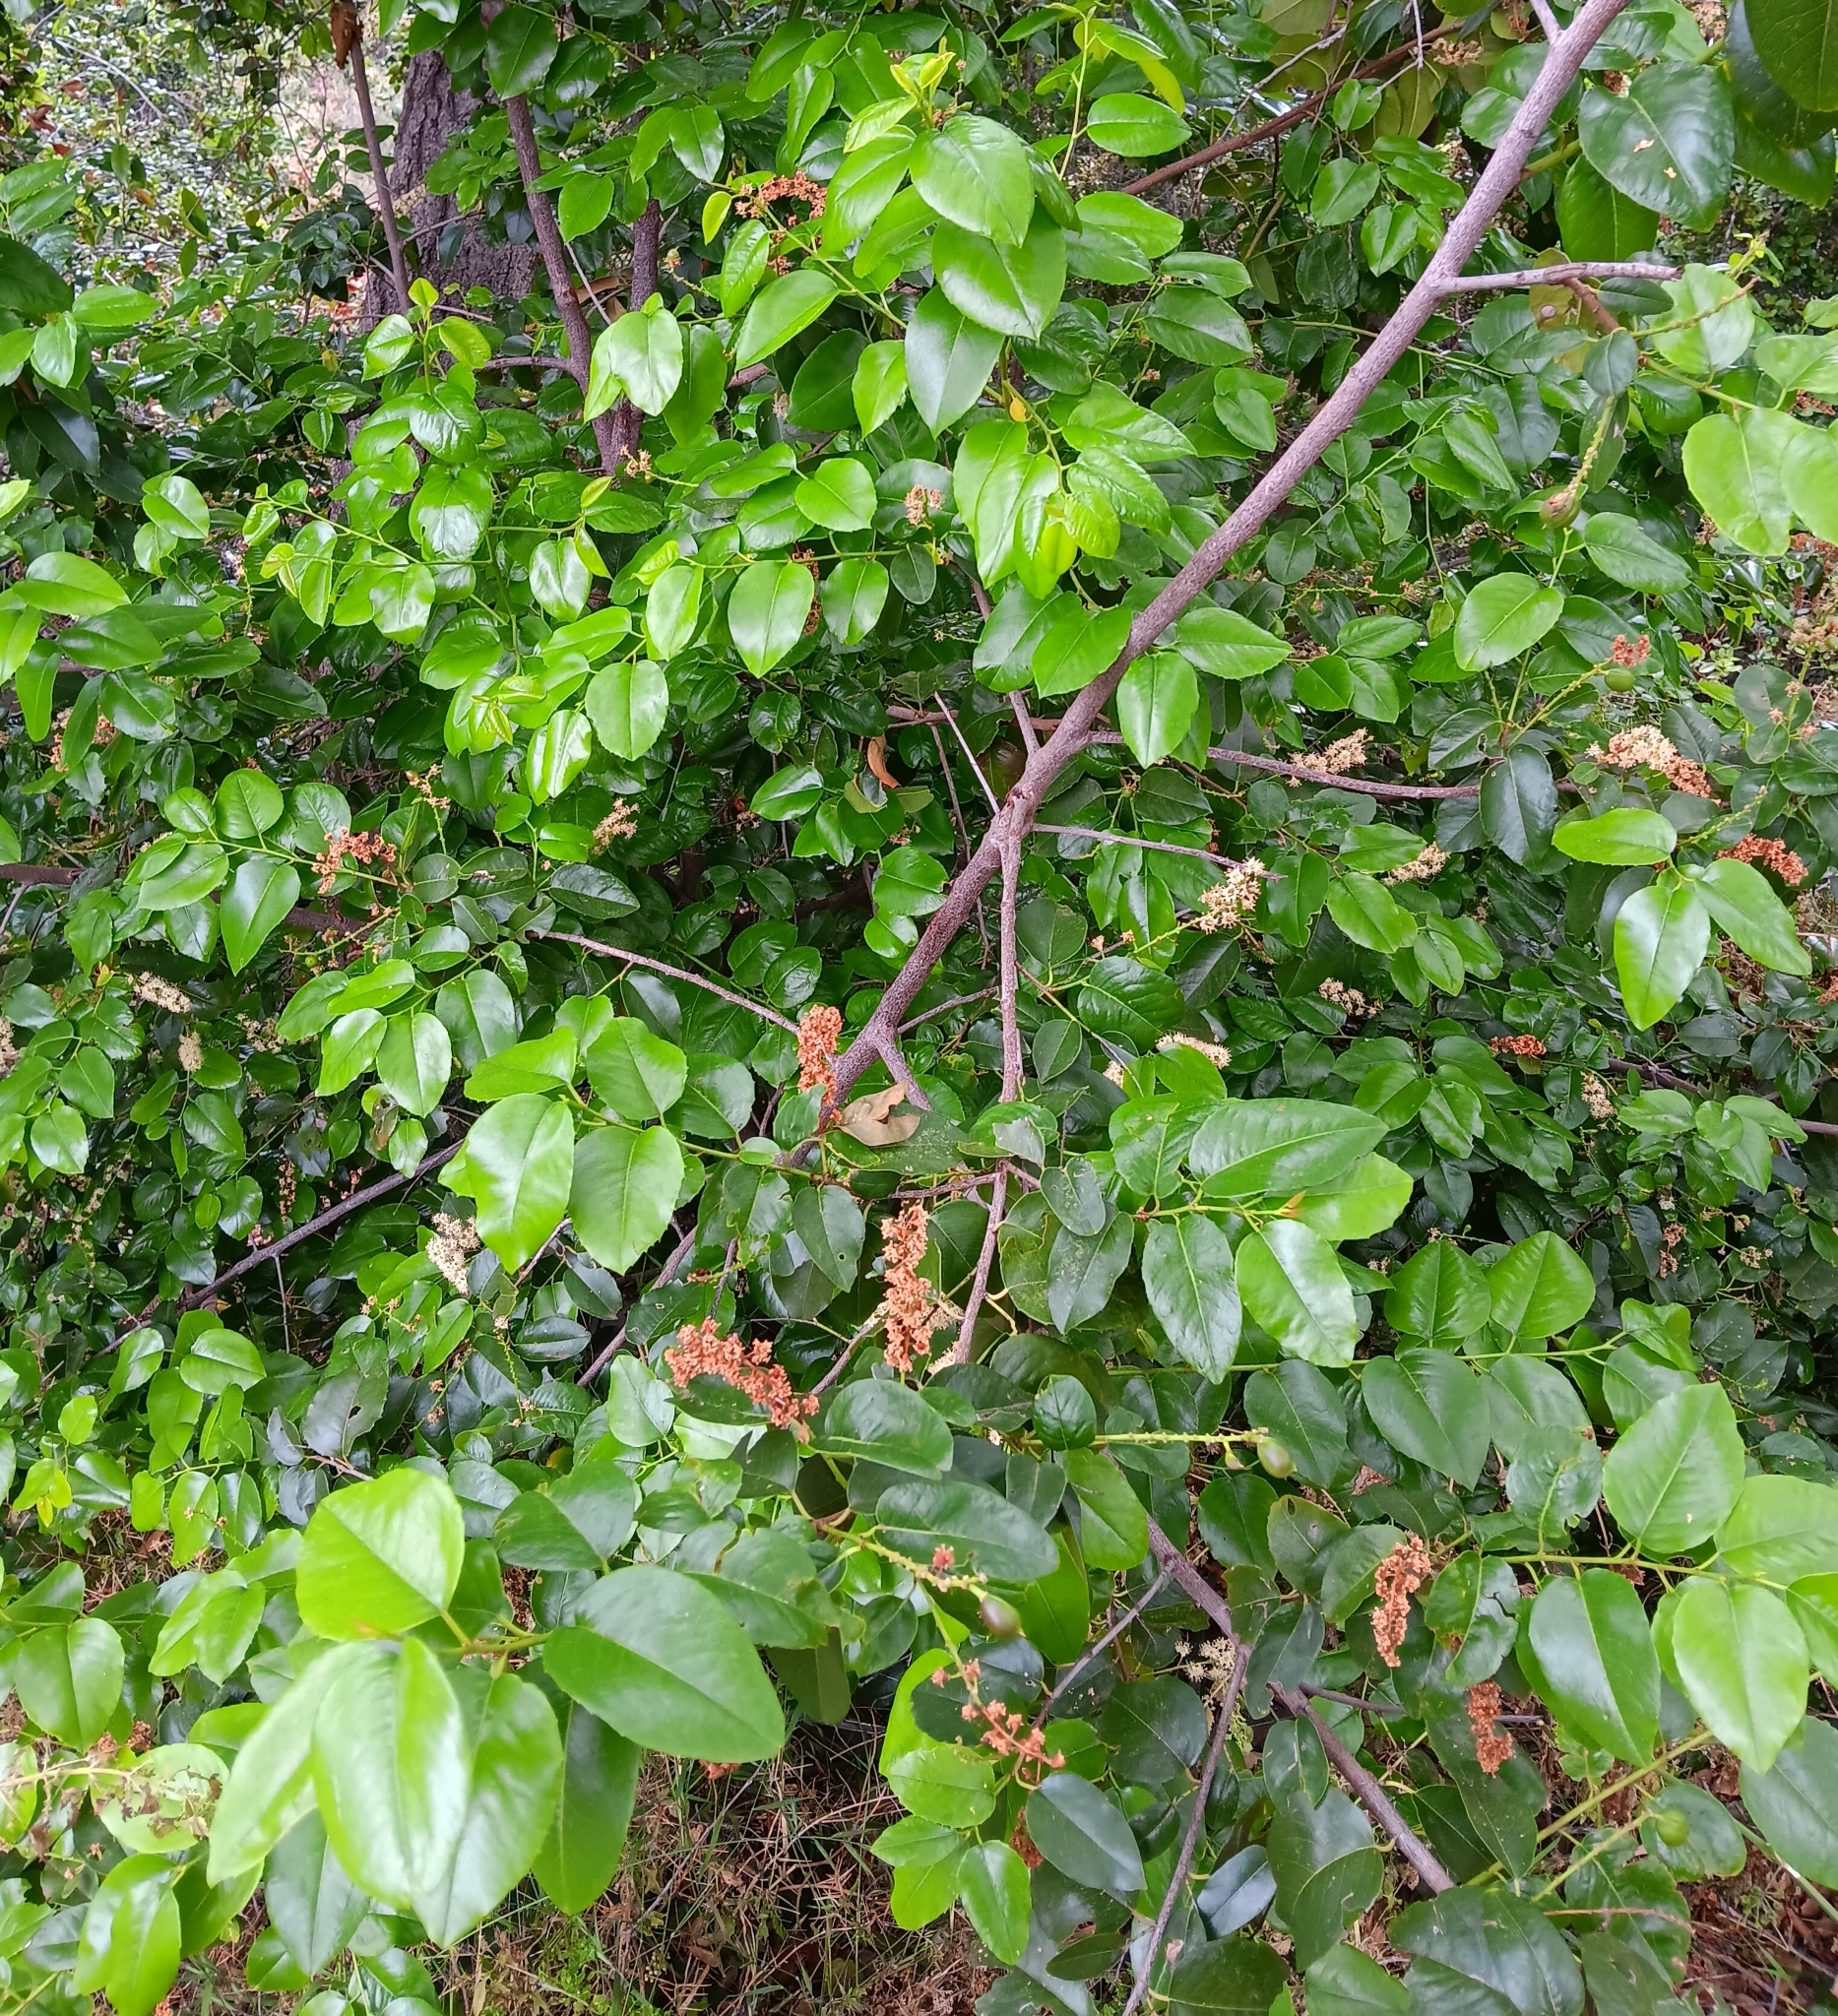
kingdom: Plantae
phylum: Tracheophyta
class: Magnoliopsida
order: Rosales
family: Rosaceae
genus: Prunus
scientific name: Prunus ilicifolia
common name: Hollyleaf cherry
